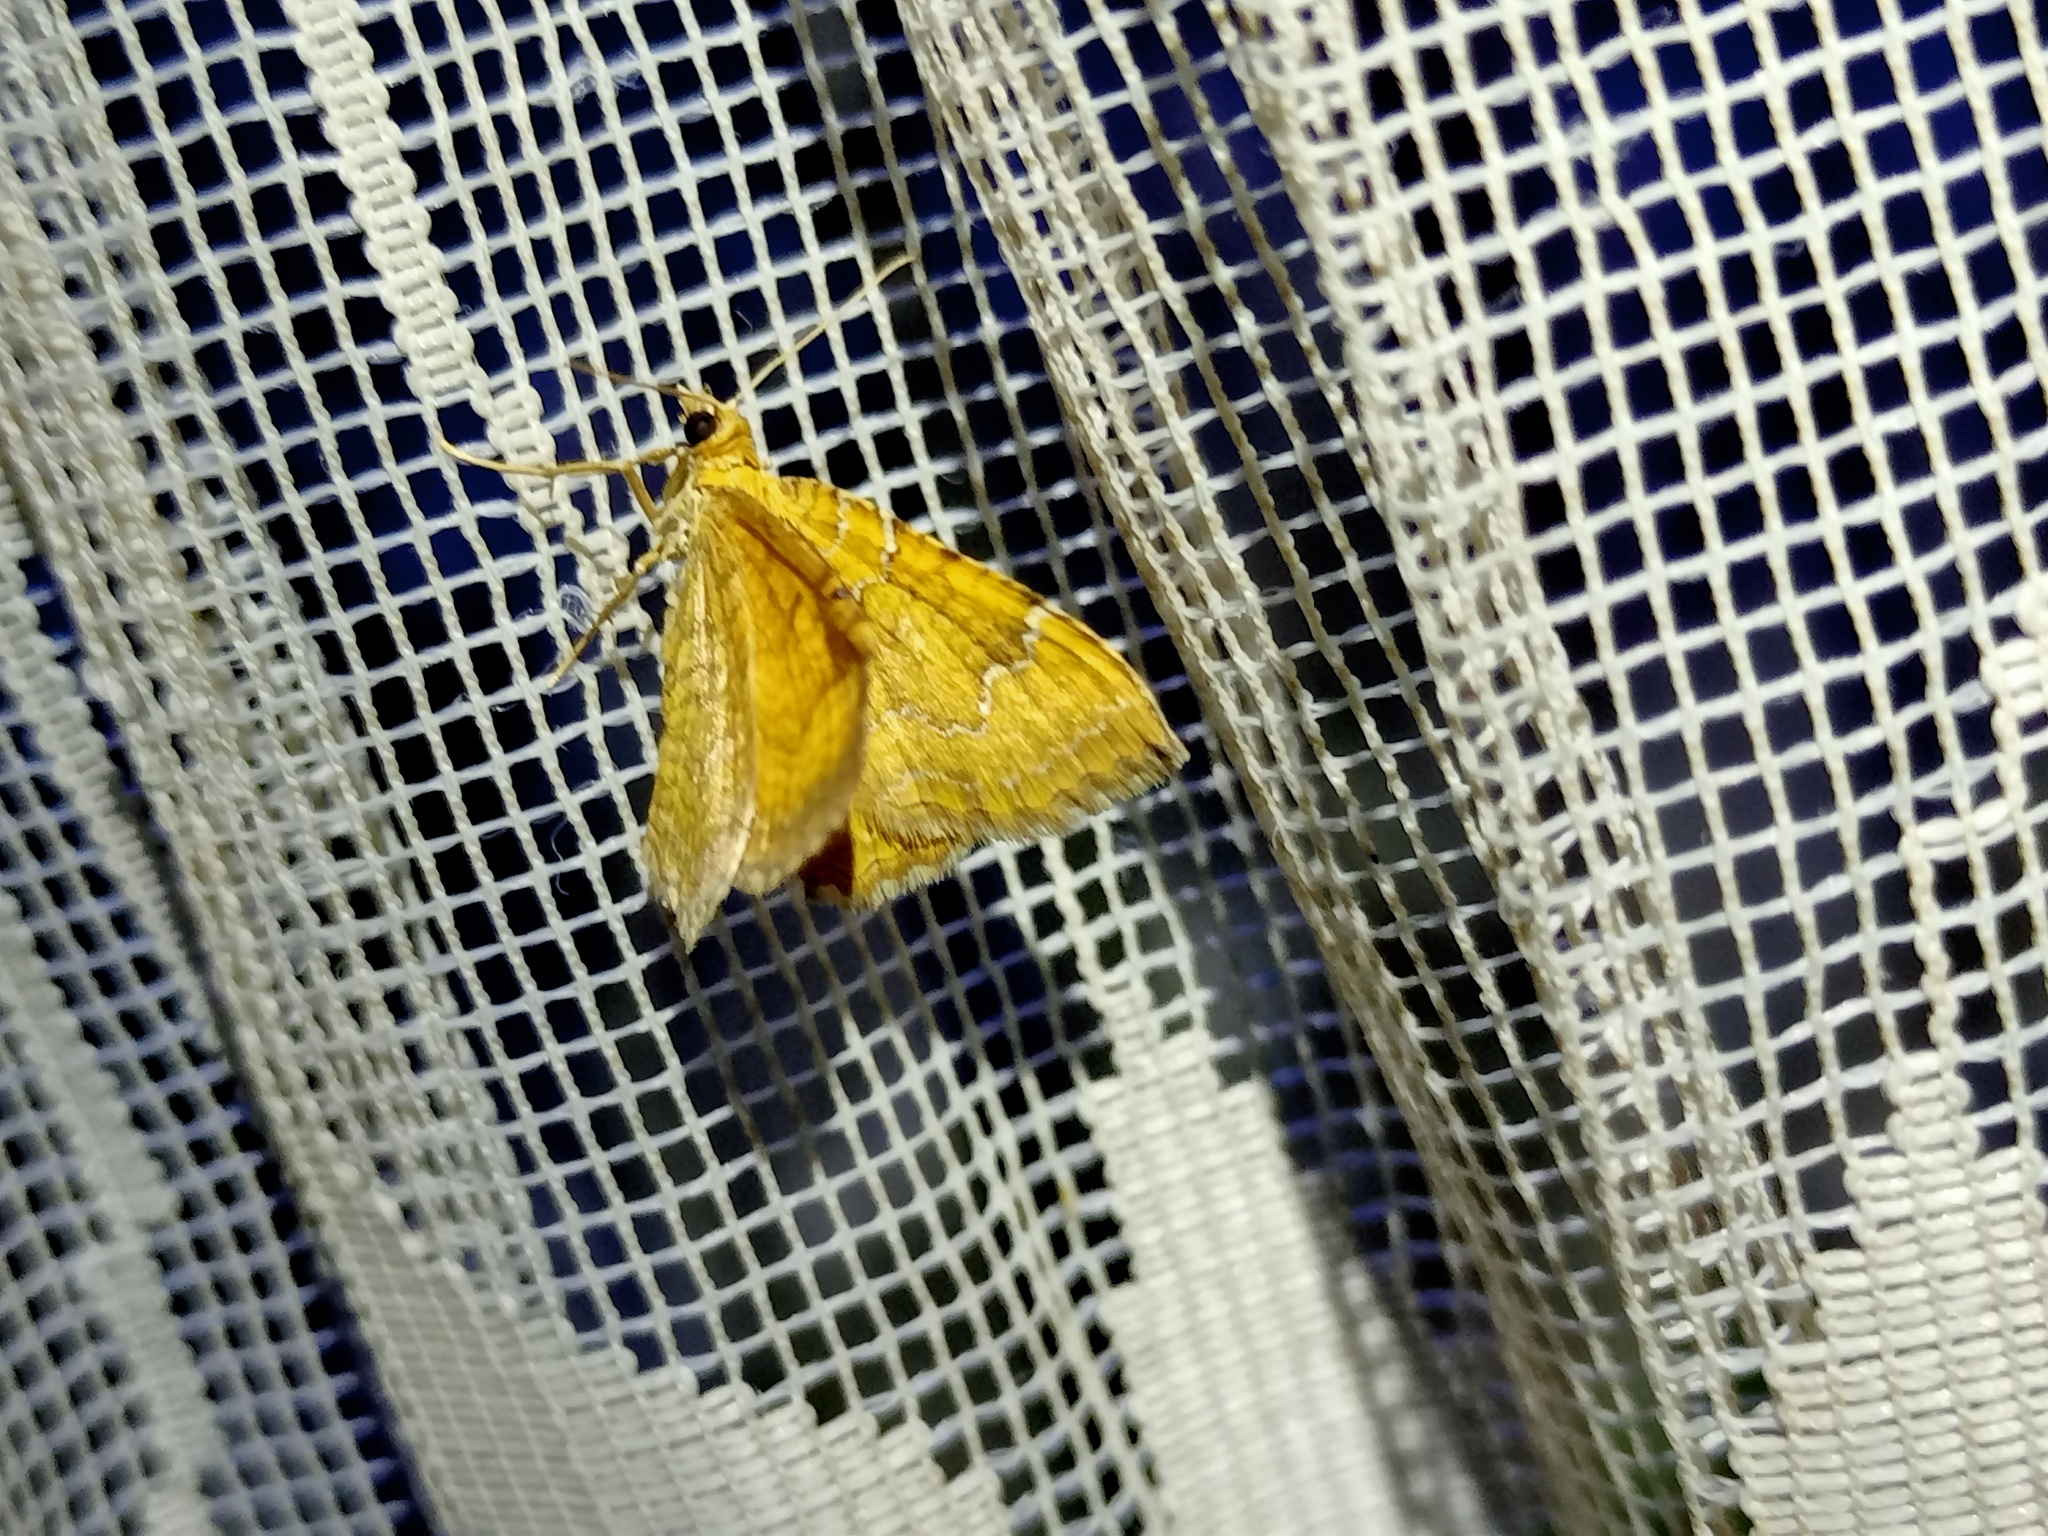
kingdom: Animalia
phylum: Arthropoda
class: Insecta
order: Lepidoptera
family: Geometridae
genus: Camptogramma
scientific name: Camptogramma bilineata
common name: Yellow shell
